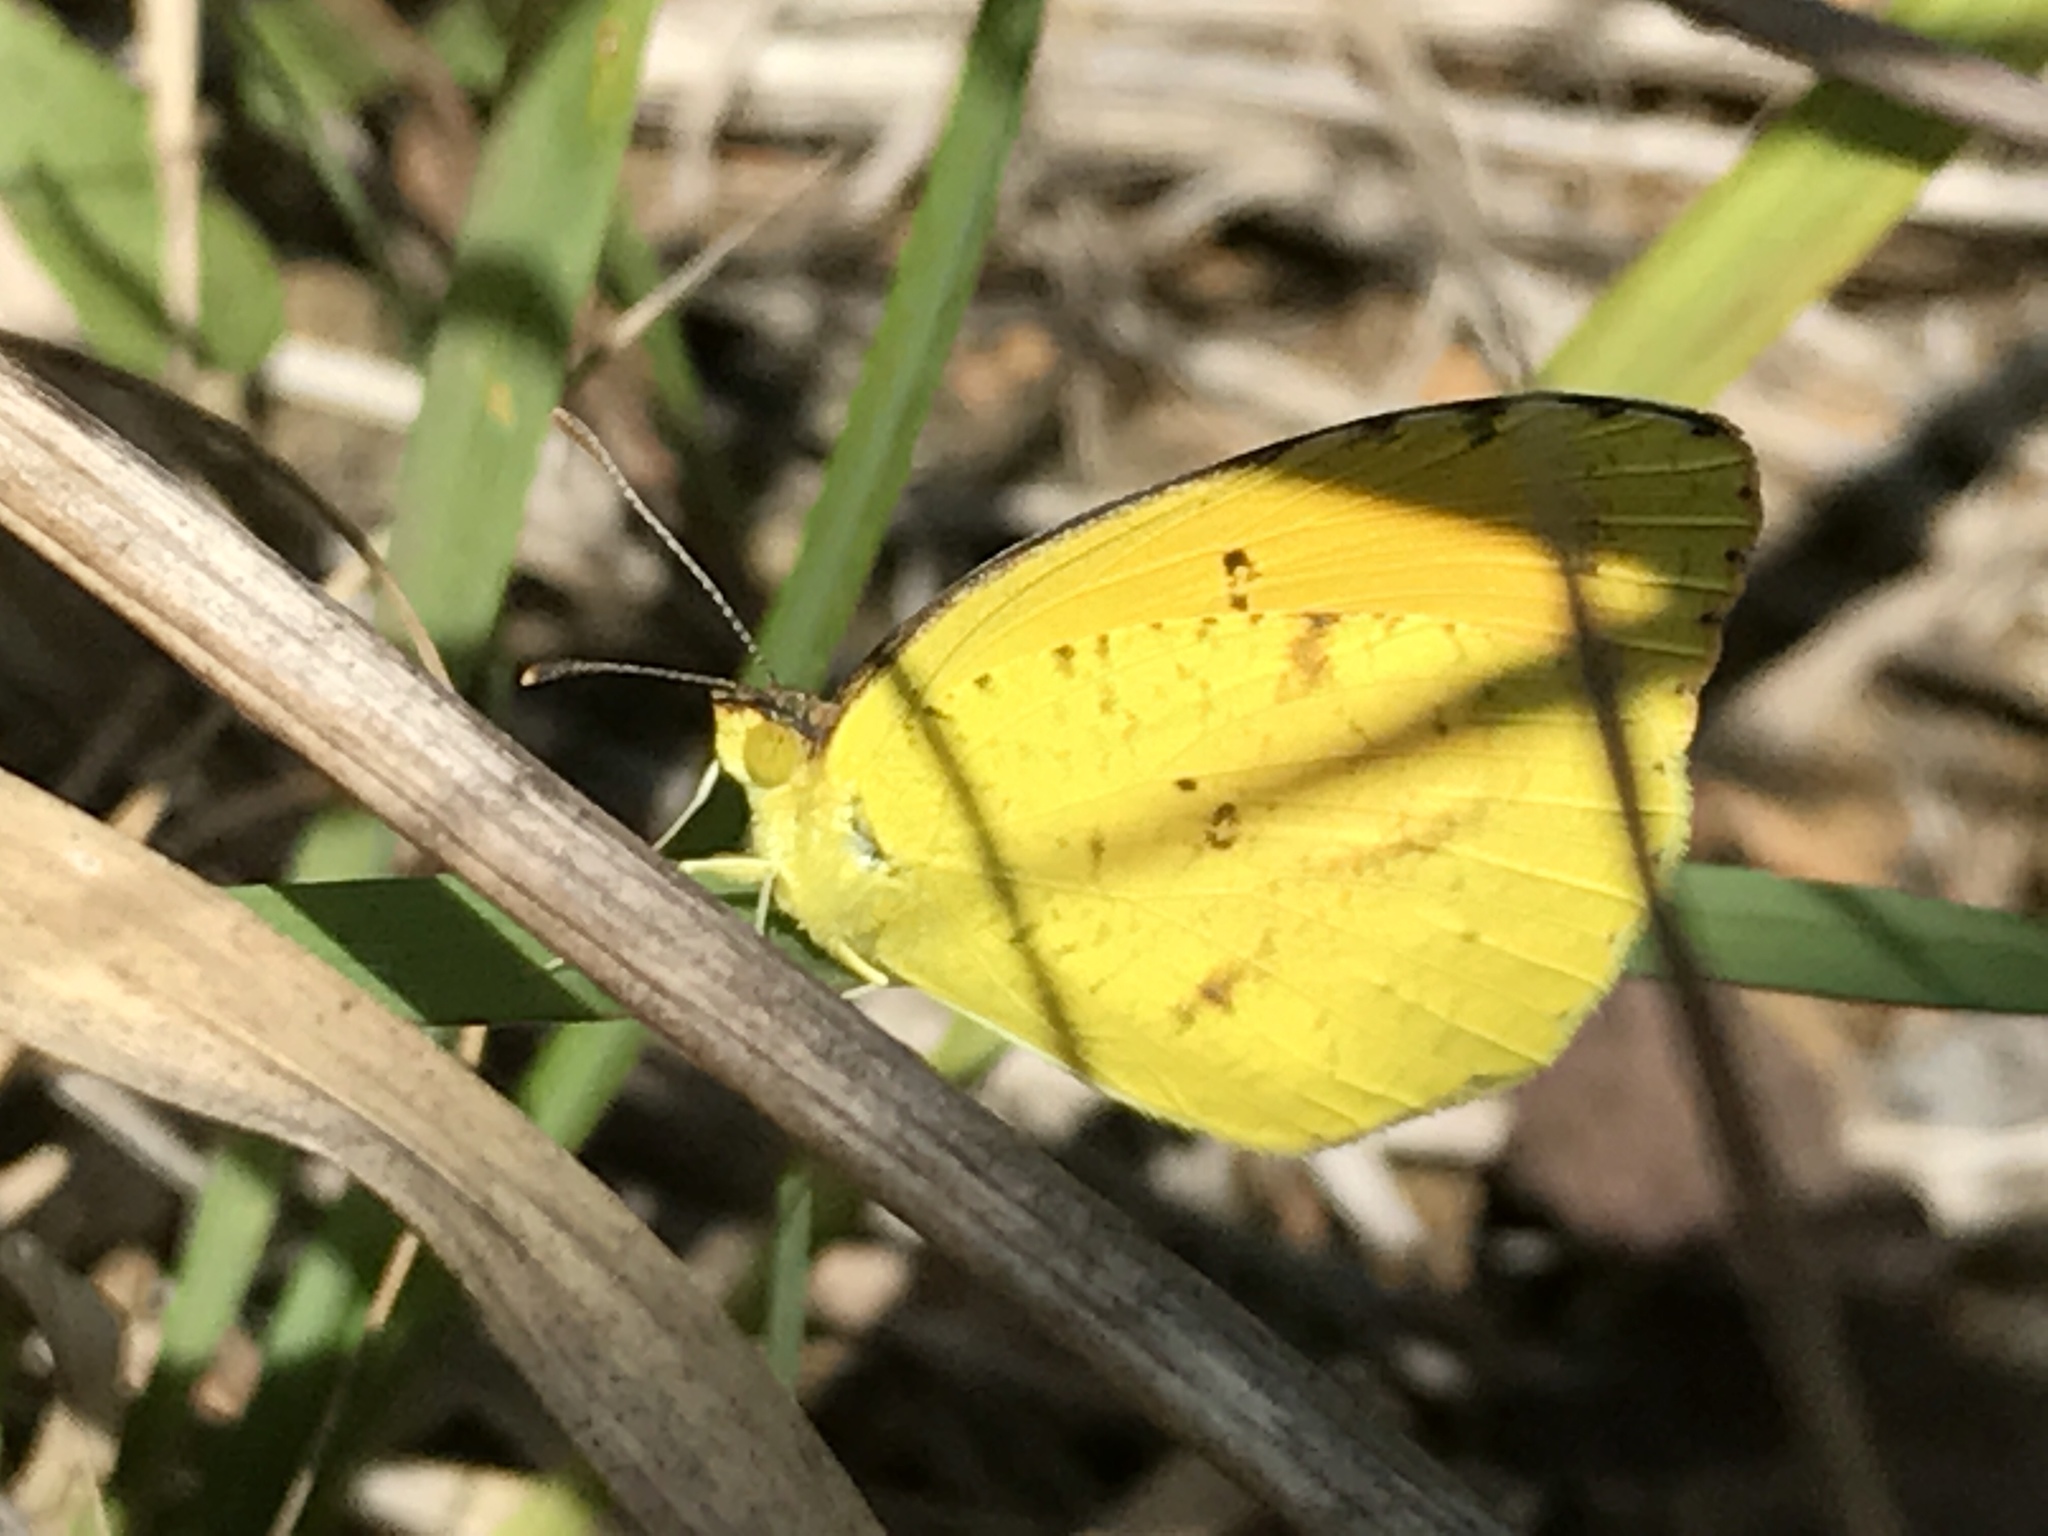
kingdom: Animalia
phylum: Arthropoda
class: Insecta
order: Lepidoptera
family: Pieridae
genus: Abaeis
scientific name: Abaeis nicippe
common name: Sleepy orange
